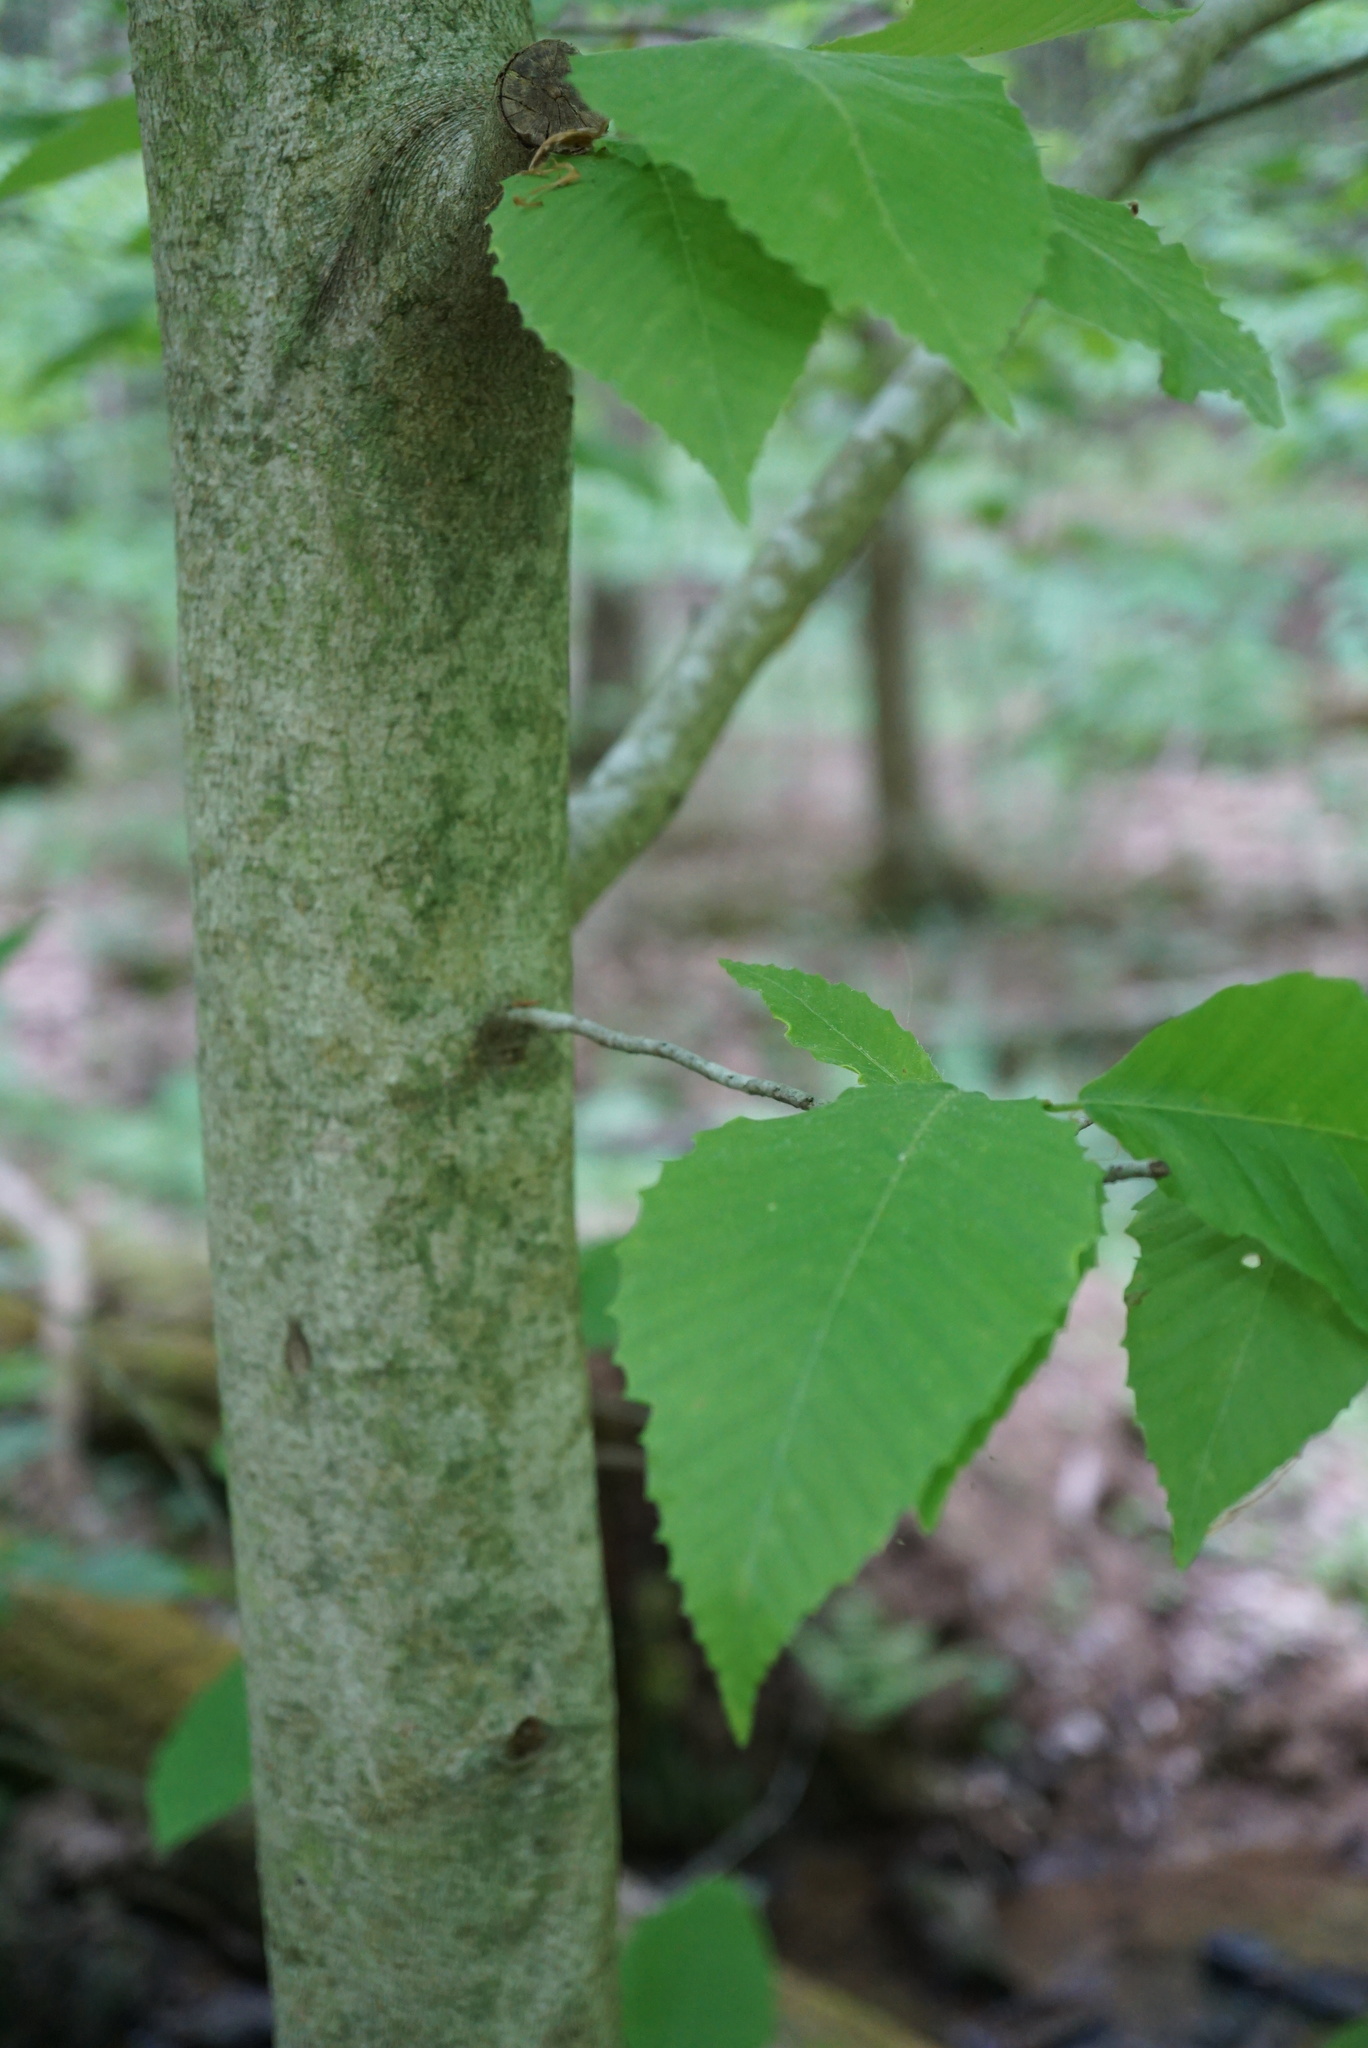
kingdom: Plantae
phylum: Tracheophyta
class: Magnoliopsida
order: Fagales
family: Fagaceae
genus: Fagus
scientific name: Fagus grandifolia
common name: American beech
